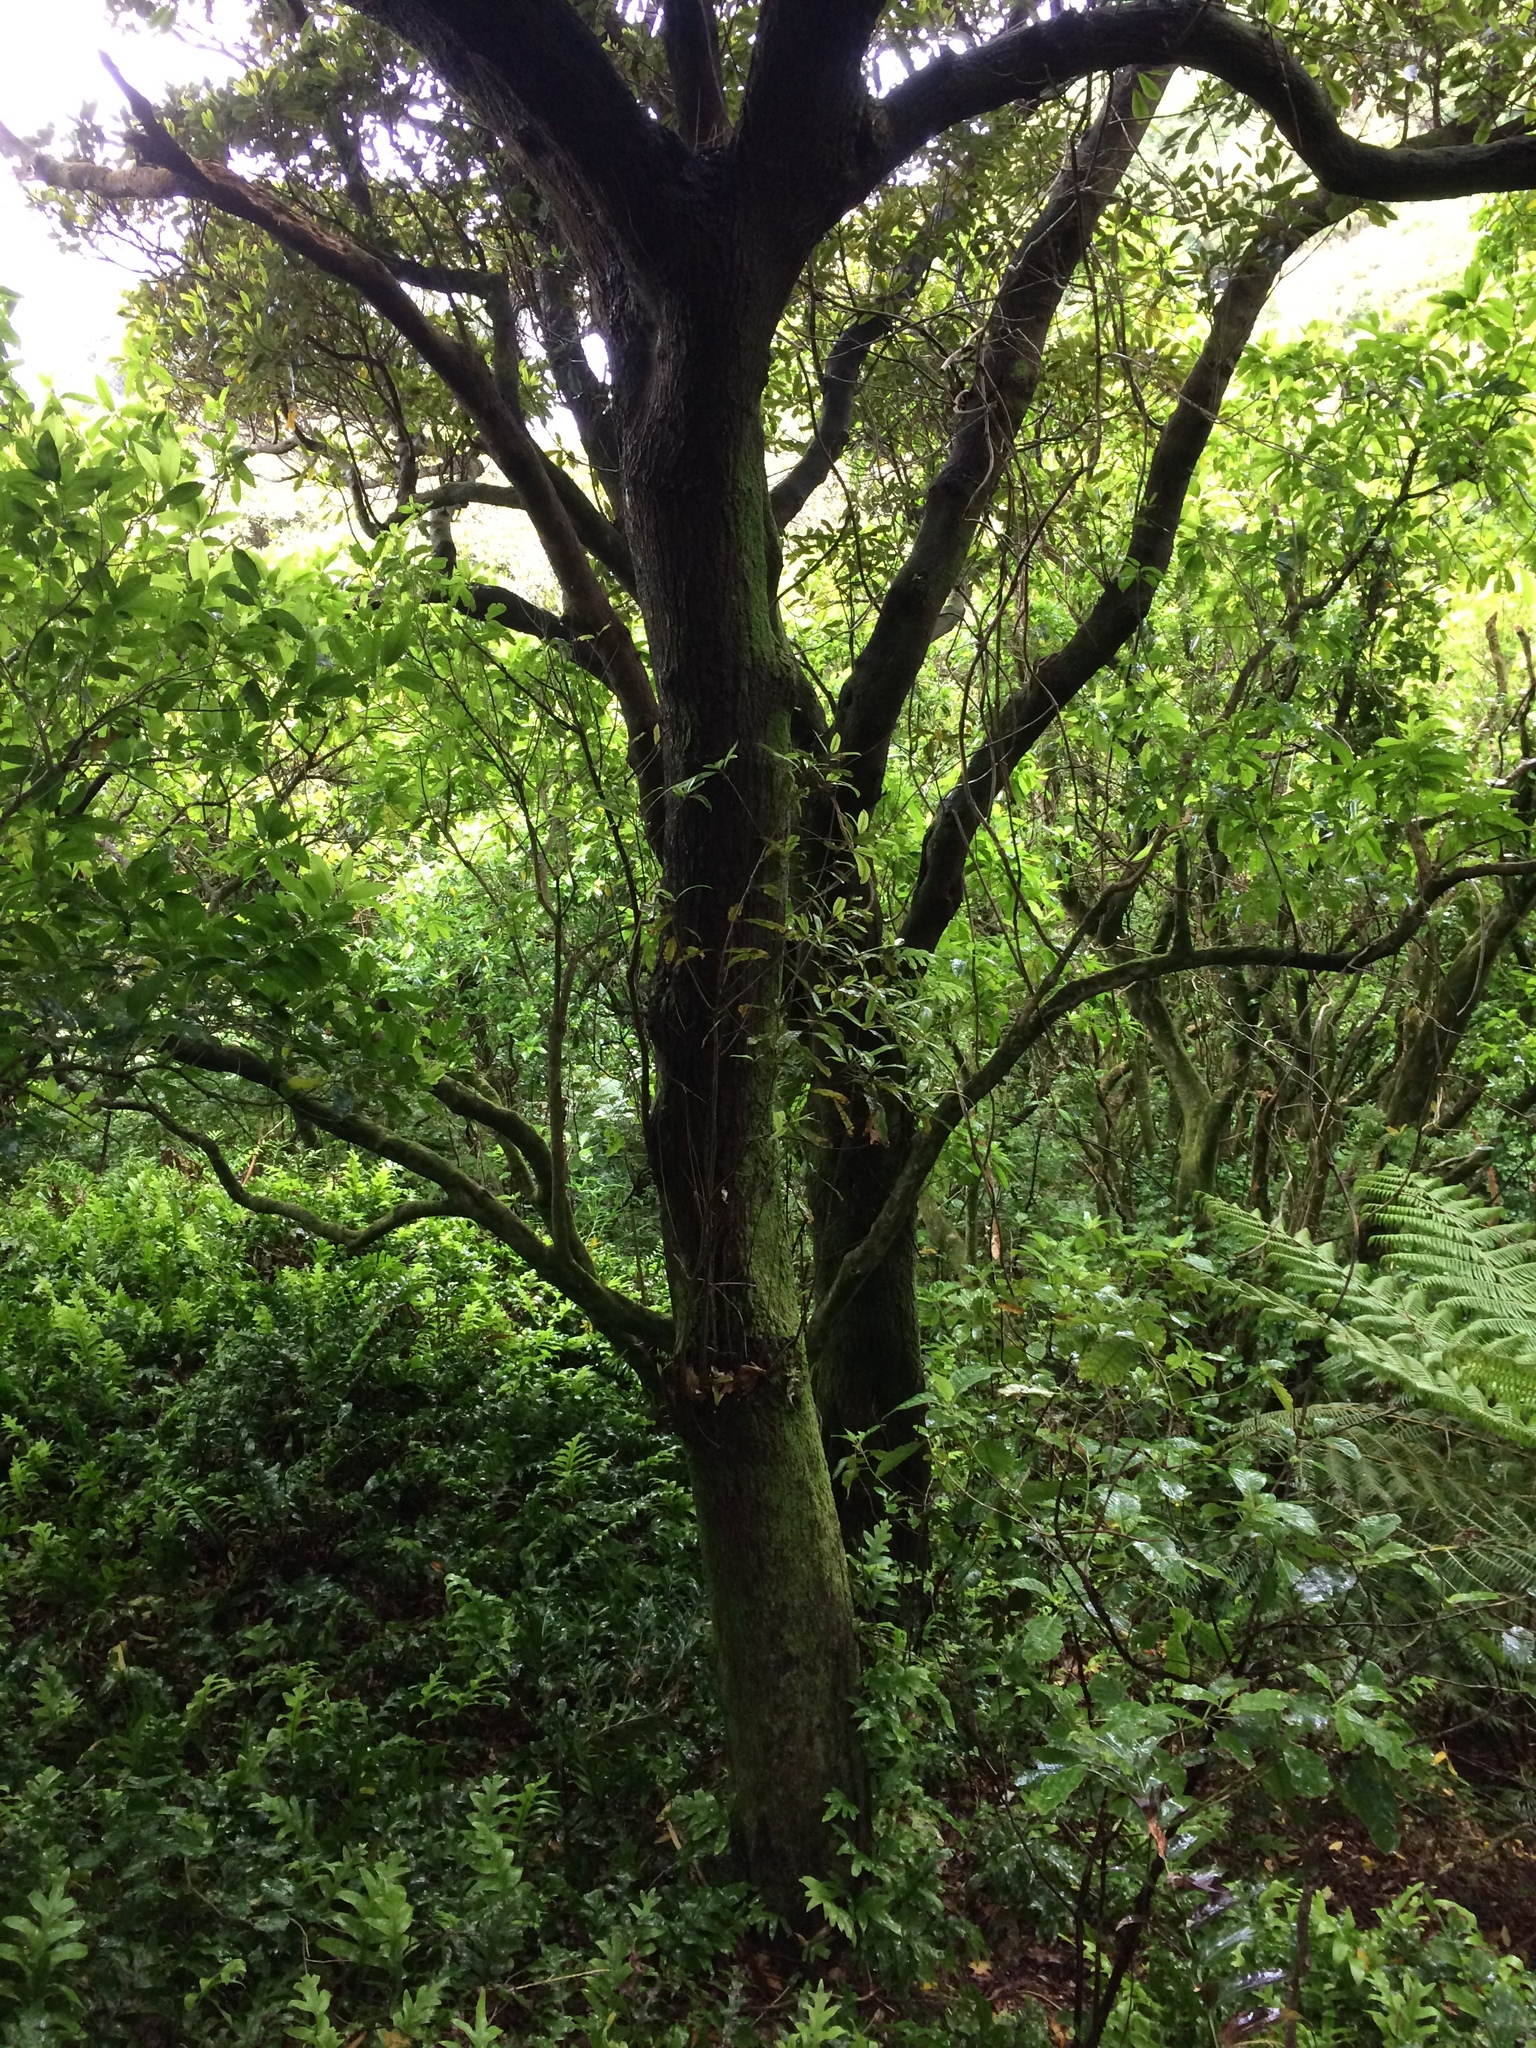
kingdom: Plantae
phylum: Tracheophyta
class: Magnoliopsida
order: Oxalidales
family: Elaeocarpaceae
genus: Elaeocarpus
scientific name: Elaeocarpus dentatus
